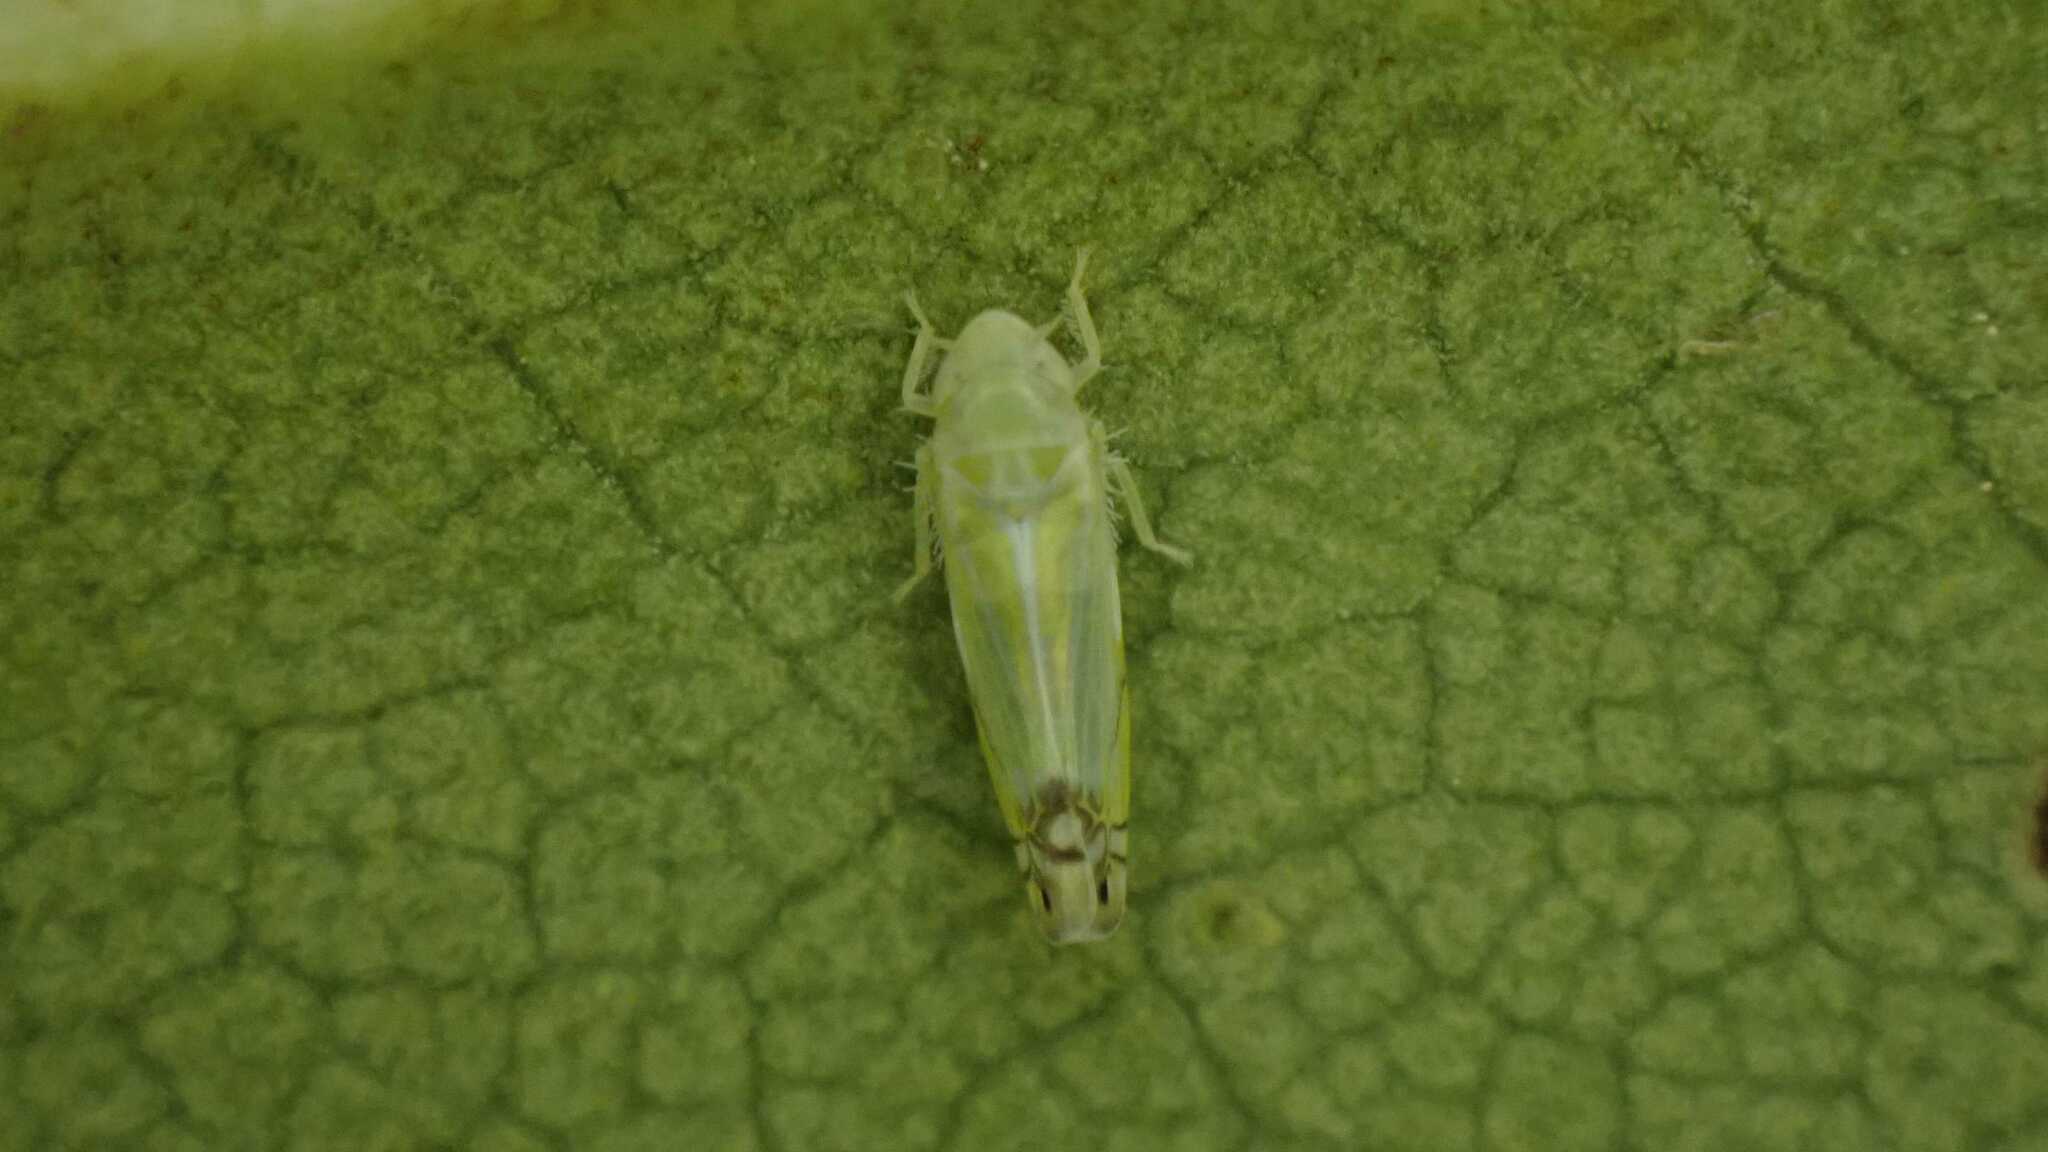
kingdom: Animalia
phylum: Arthropoda
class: Insecta
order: Hemiptera
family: Cicadellidae
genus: Zyginella
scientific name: Zyginella pulchra
